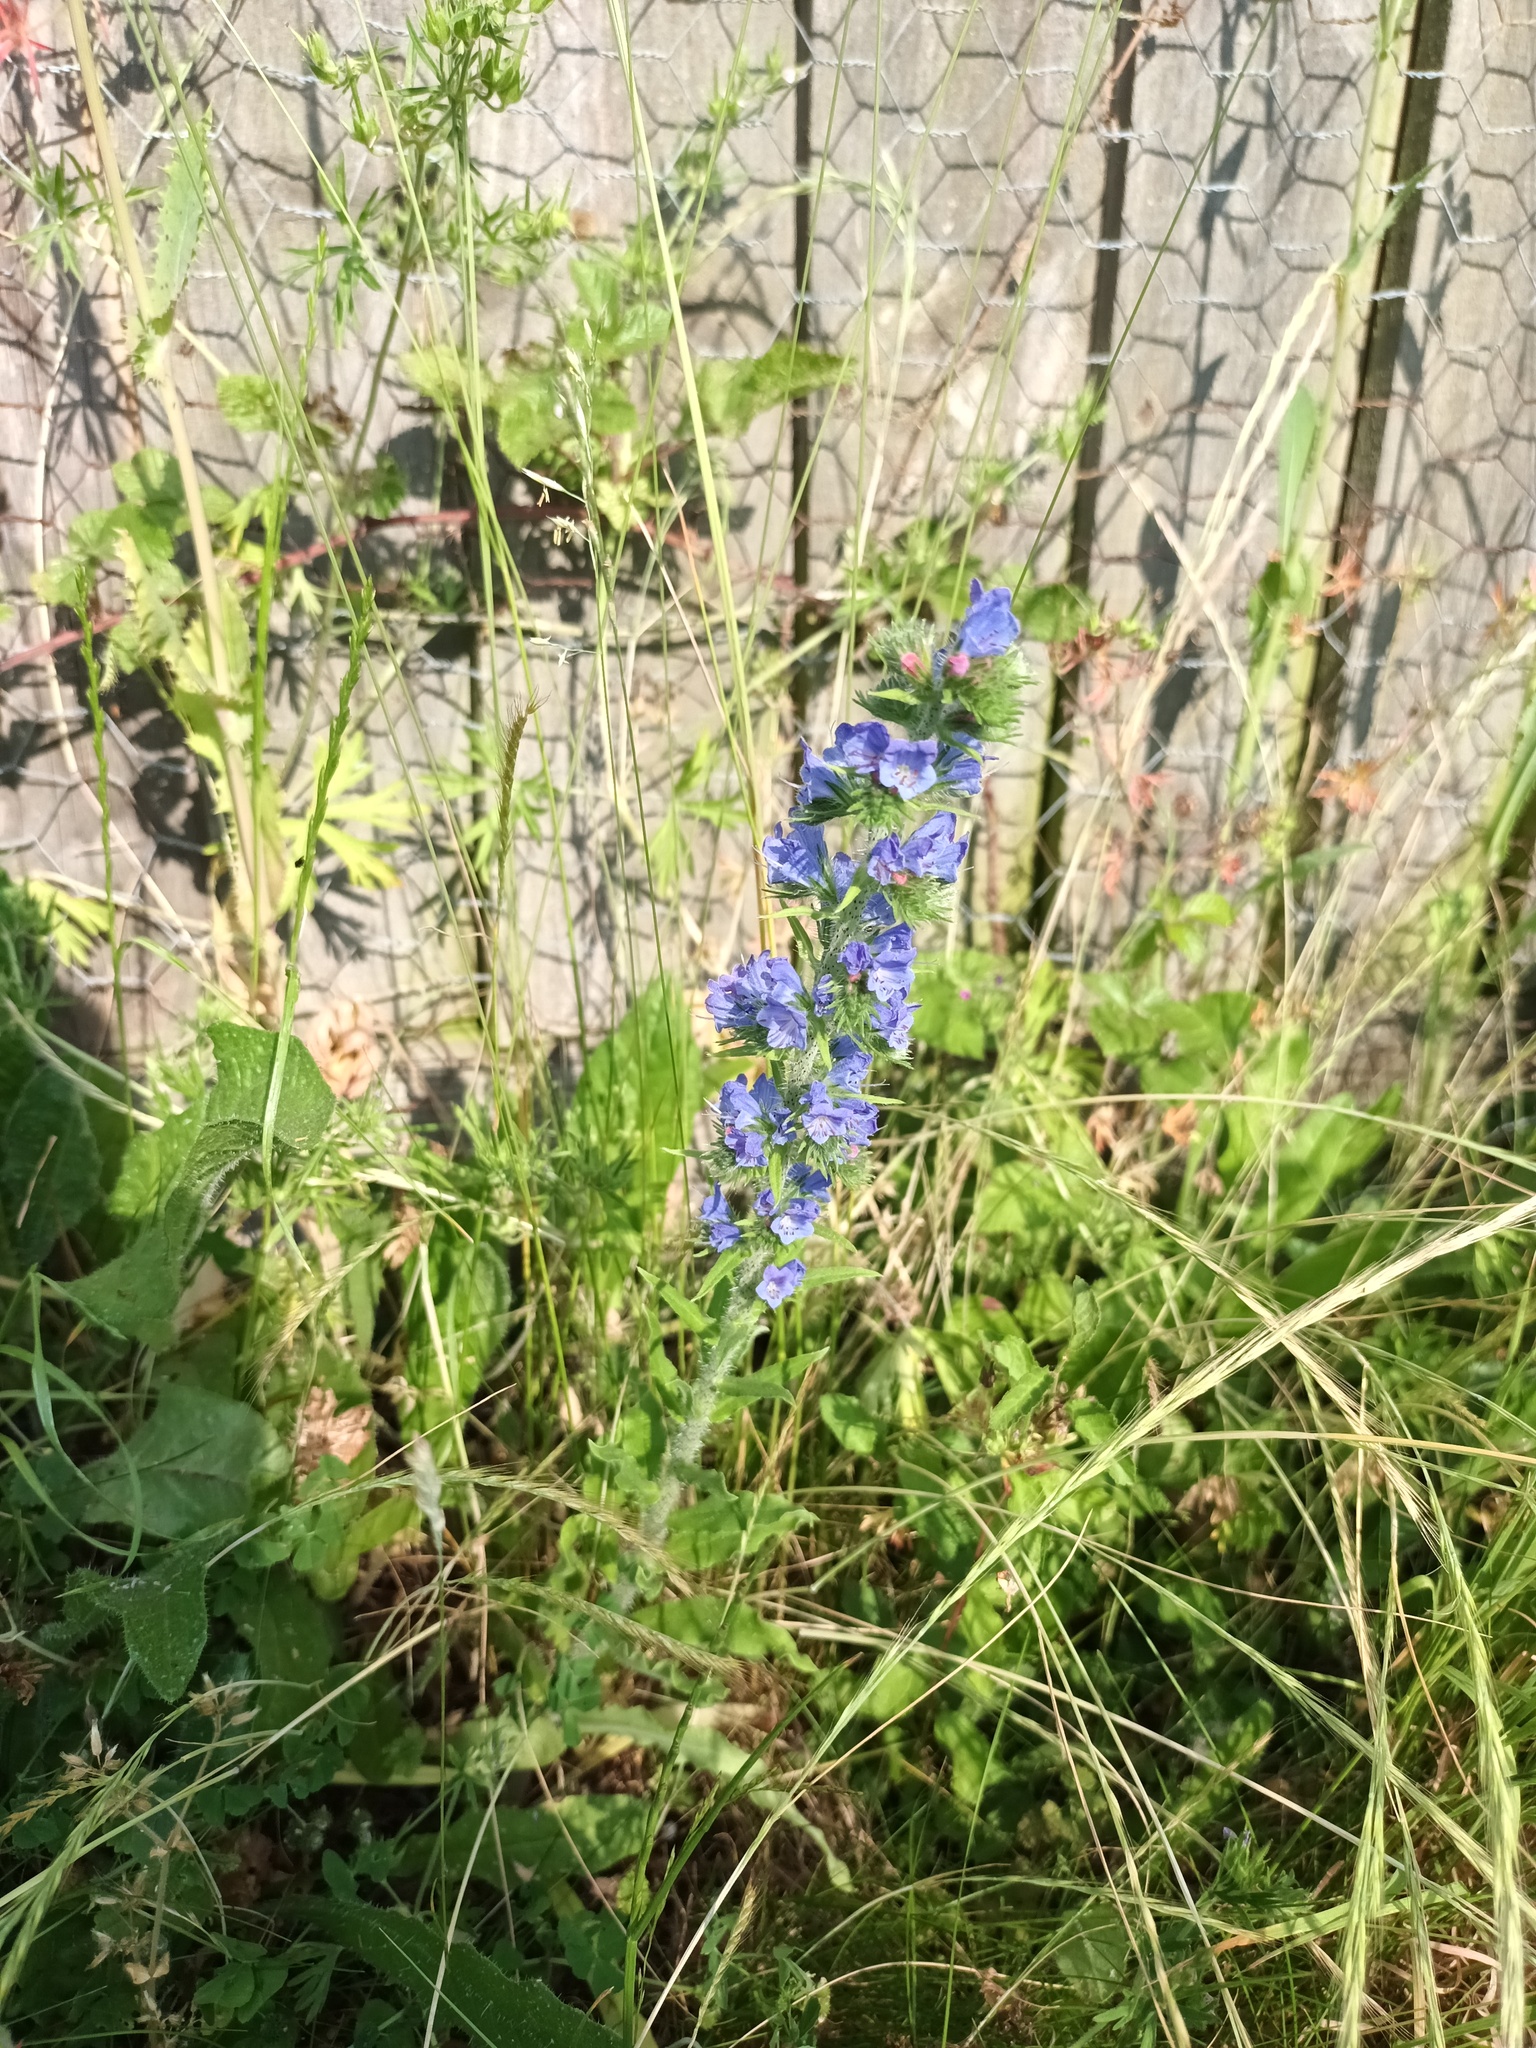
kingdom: Plantae
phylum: Tracheophyta
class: Magnoliopsida
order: Boraginales
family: Boraginaceae
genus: Echium
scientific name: Echium vulgare
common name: Common viper's bugloss
